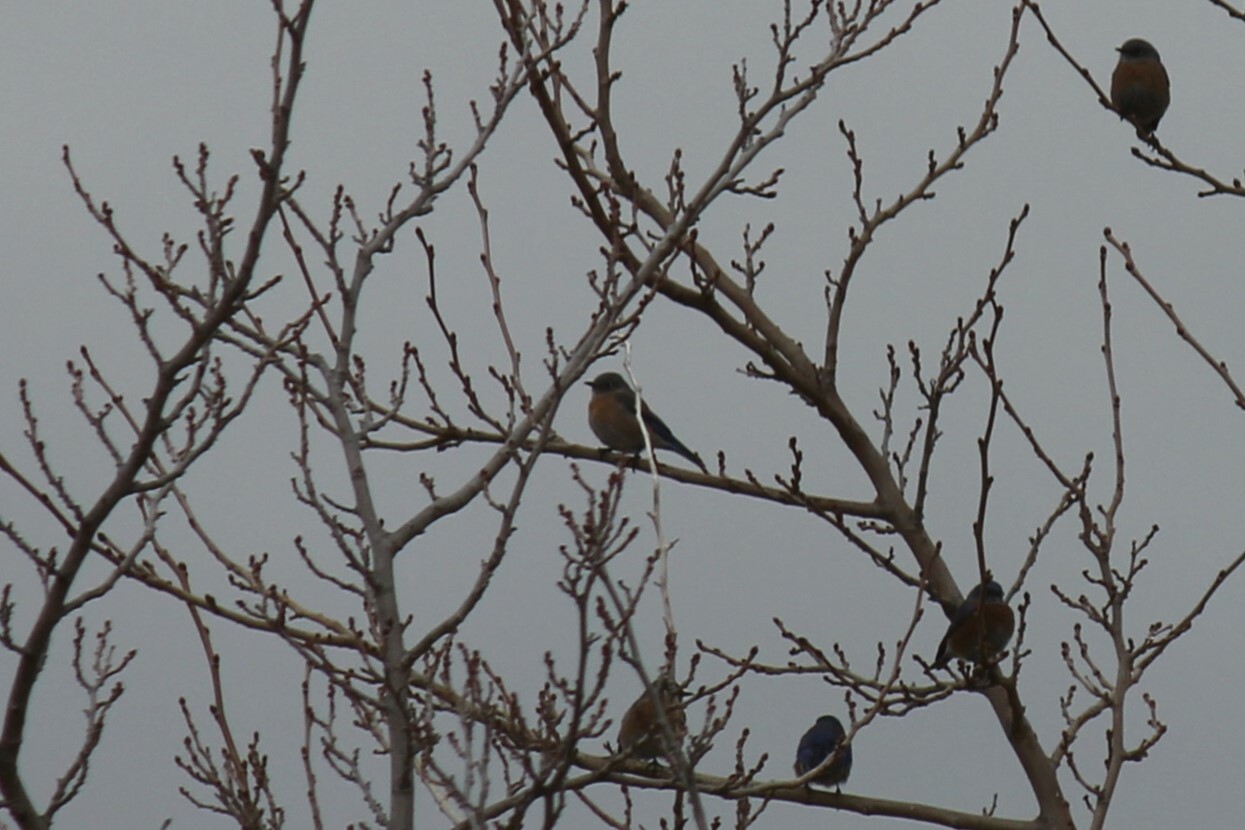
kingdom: Animalia
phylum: Chordata
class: Aves
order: Passeriformes
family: Turdidae
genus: Sialia
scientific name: Sialia mexicana
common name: Western bluebird
